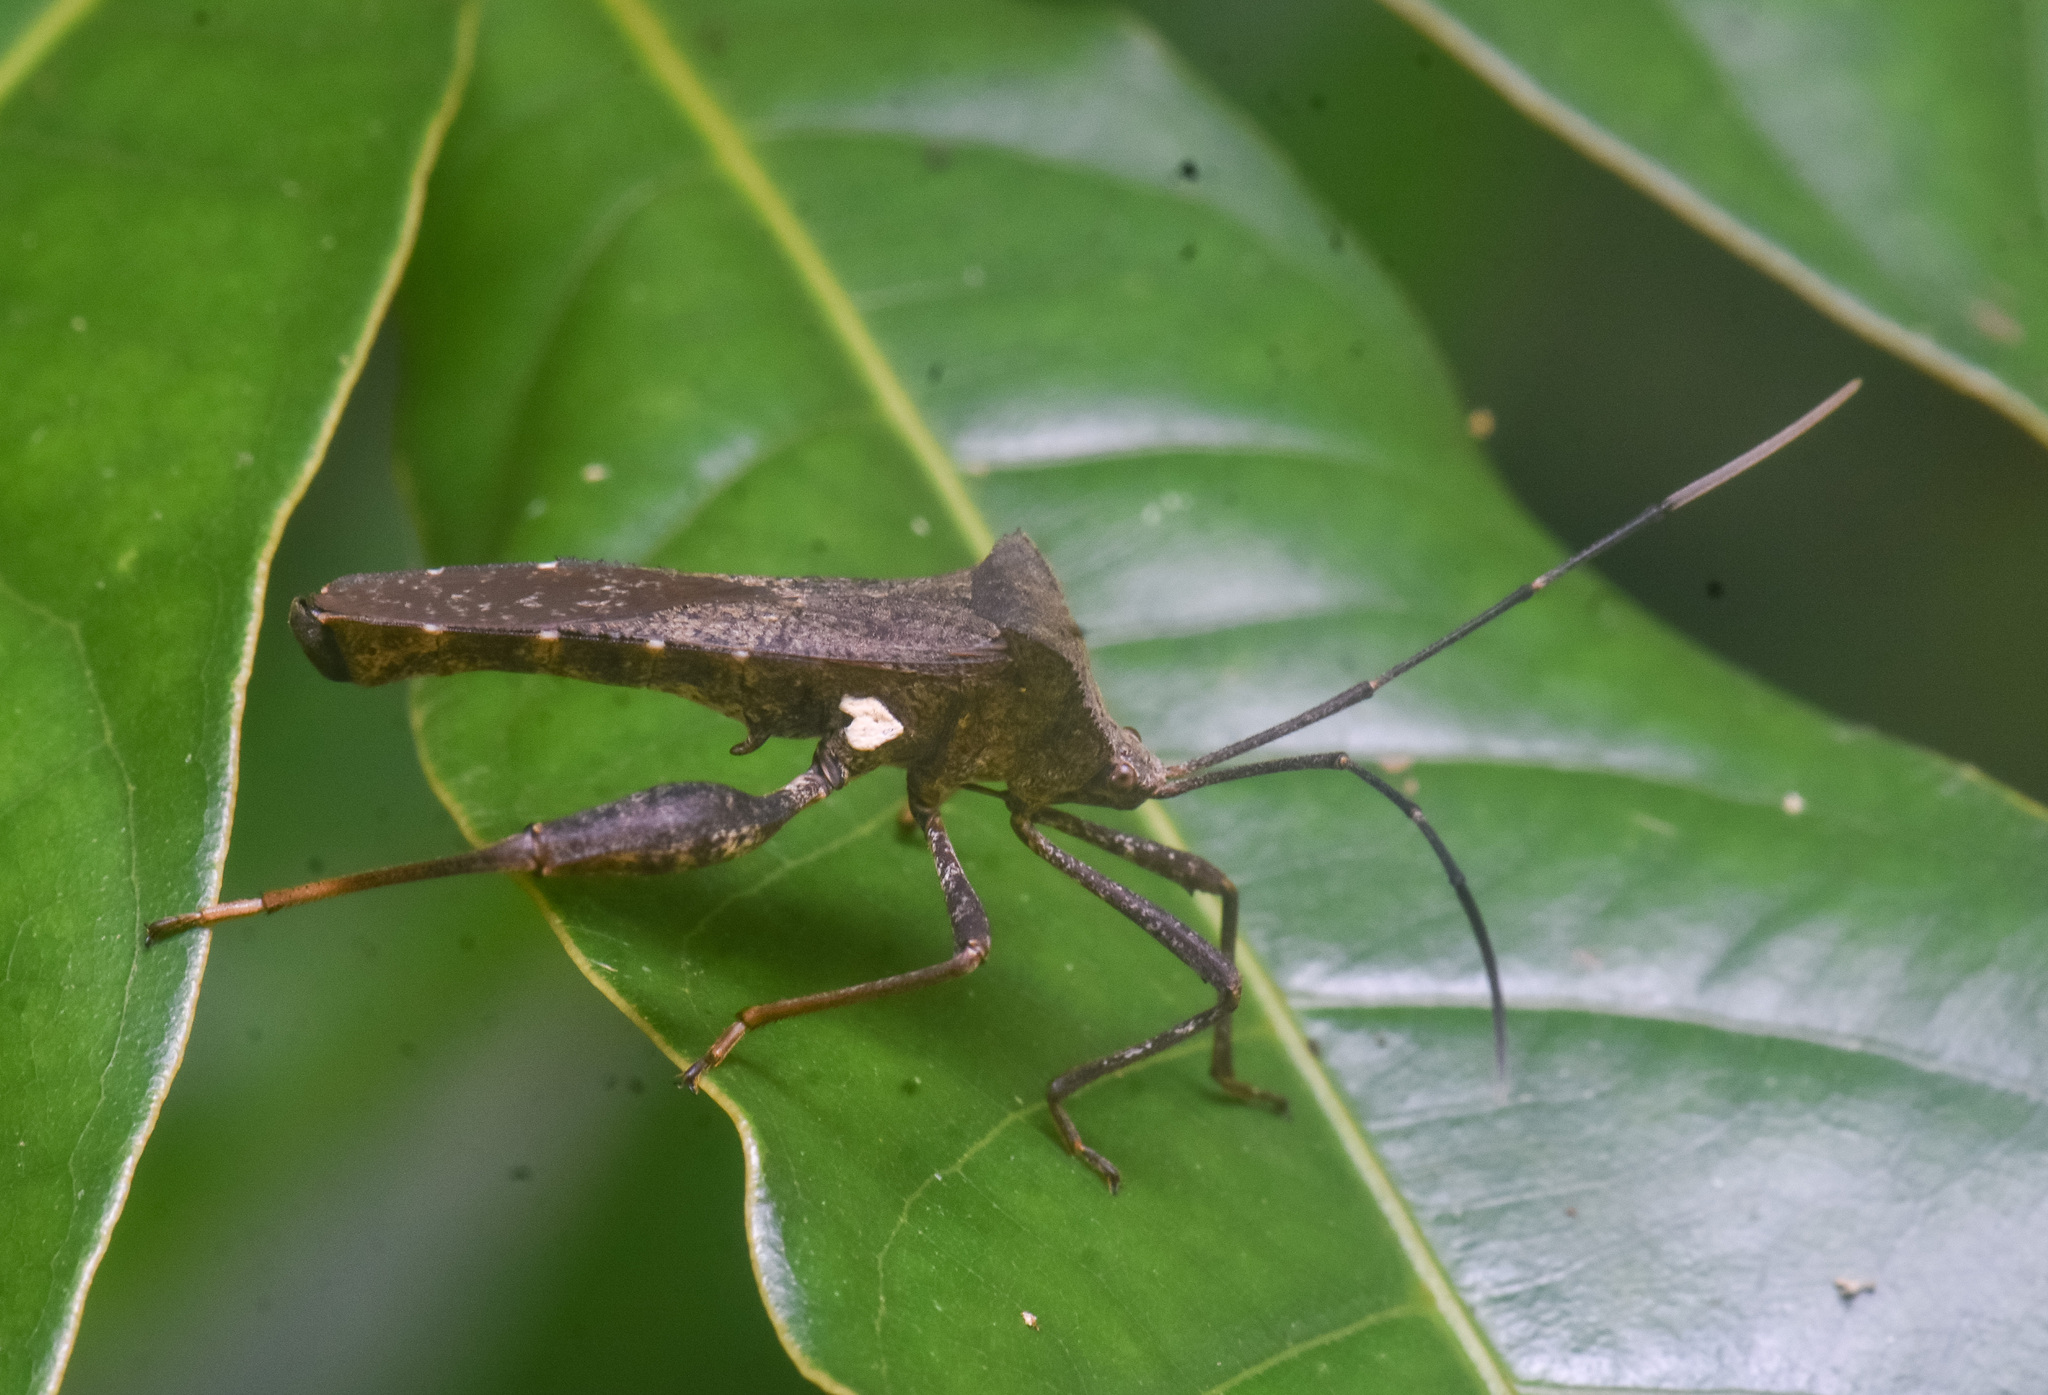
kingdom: Animalia
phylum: Arthropoda
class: Insecta
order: Hemiptera
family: Coreidae
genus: Mictis
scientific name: Mictis gallina
